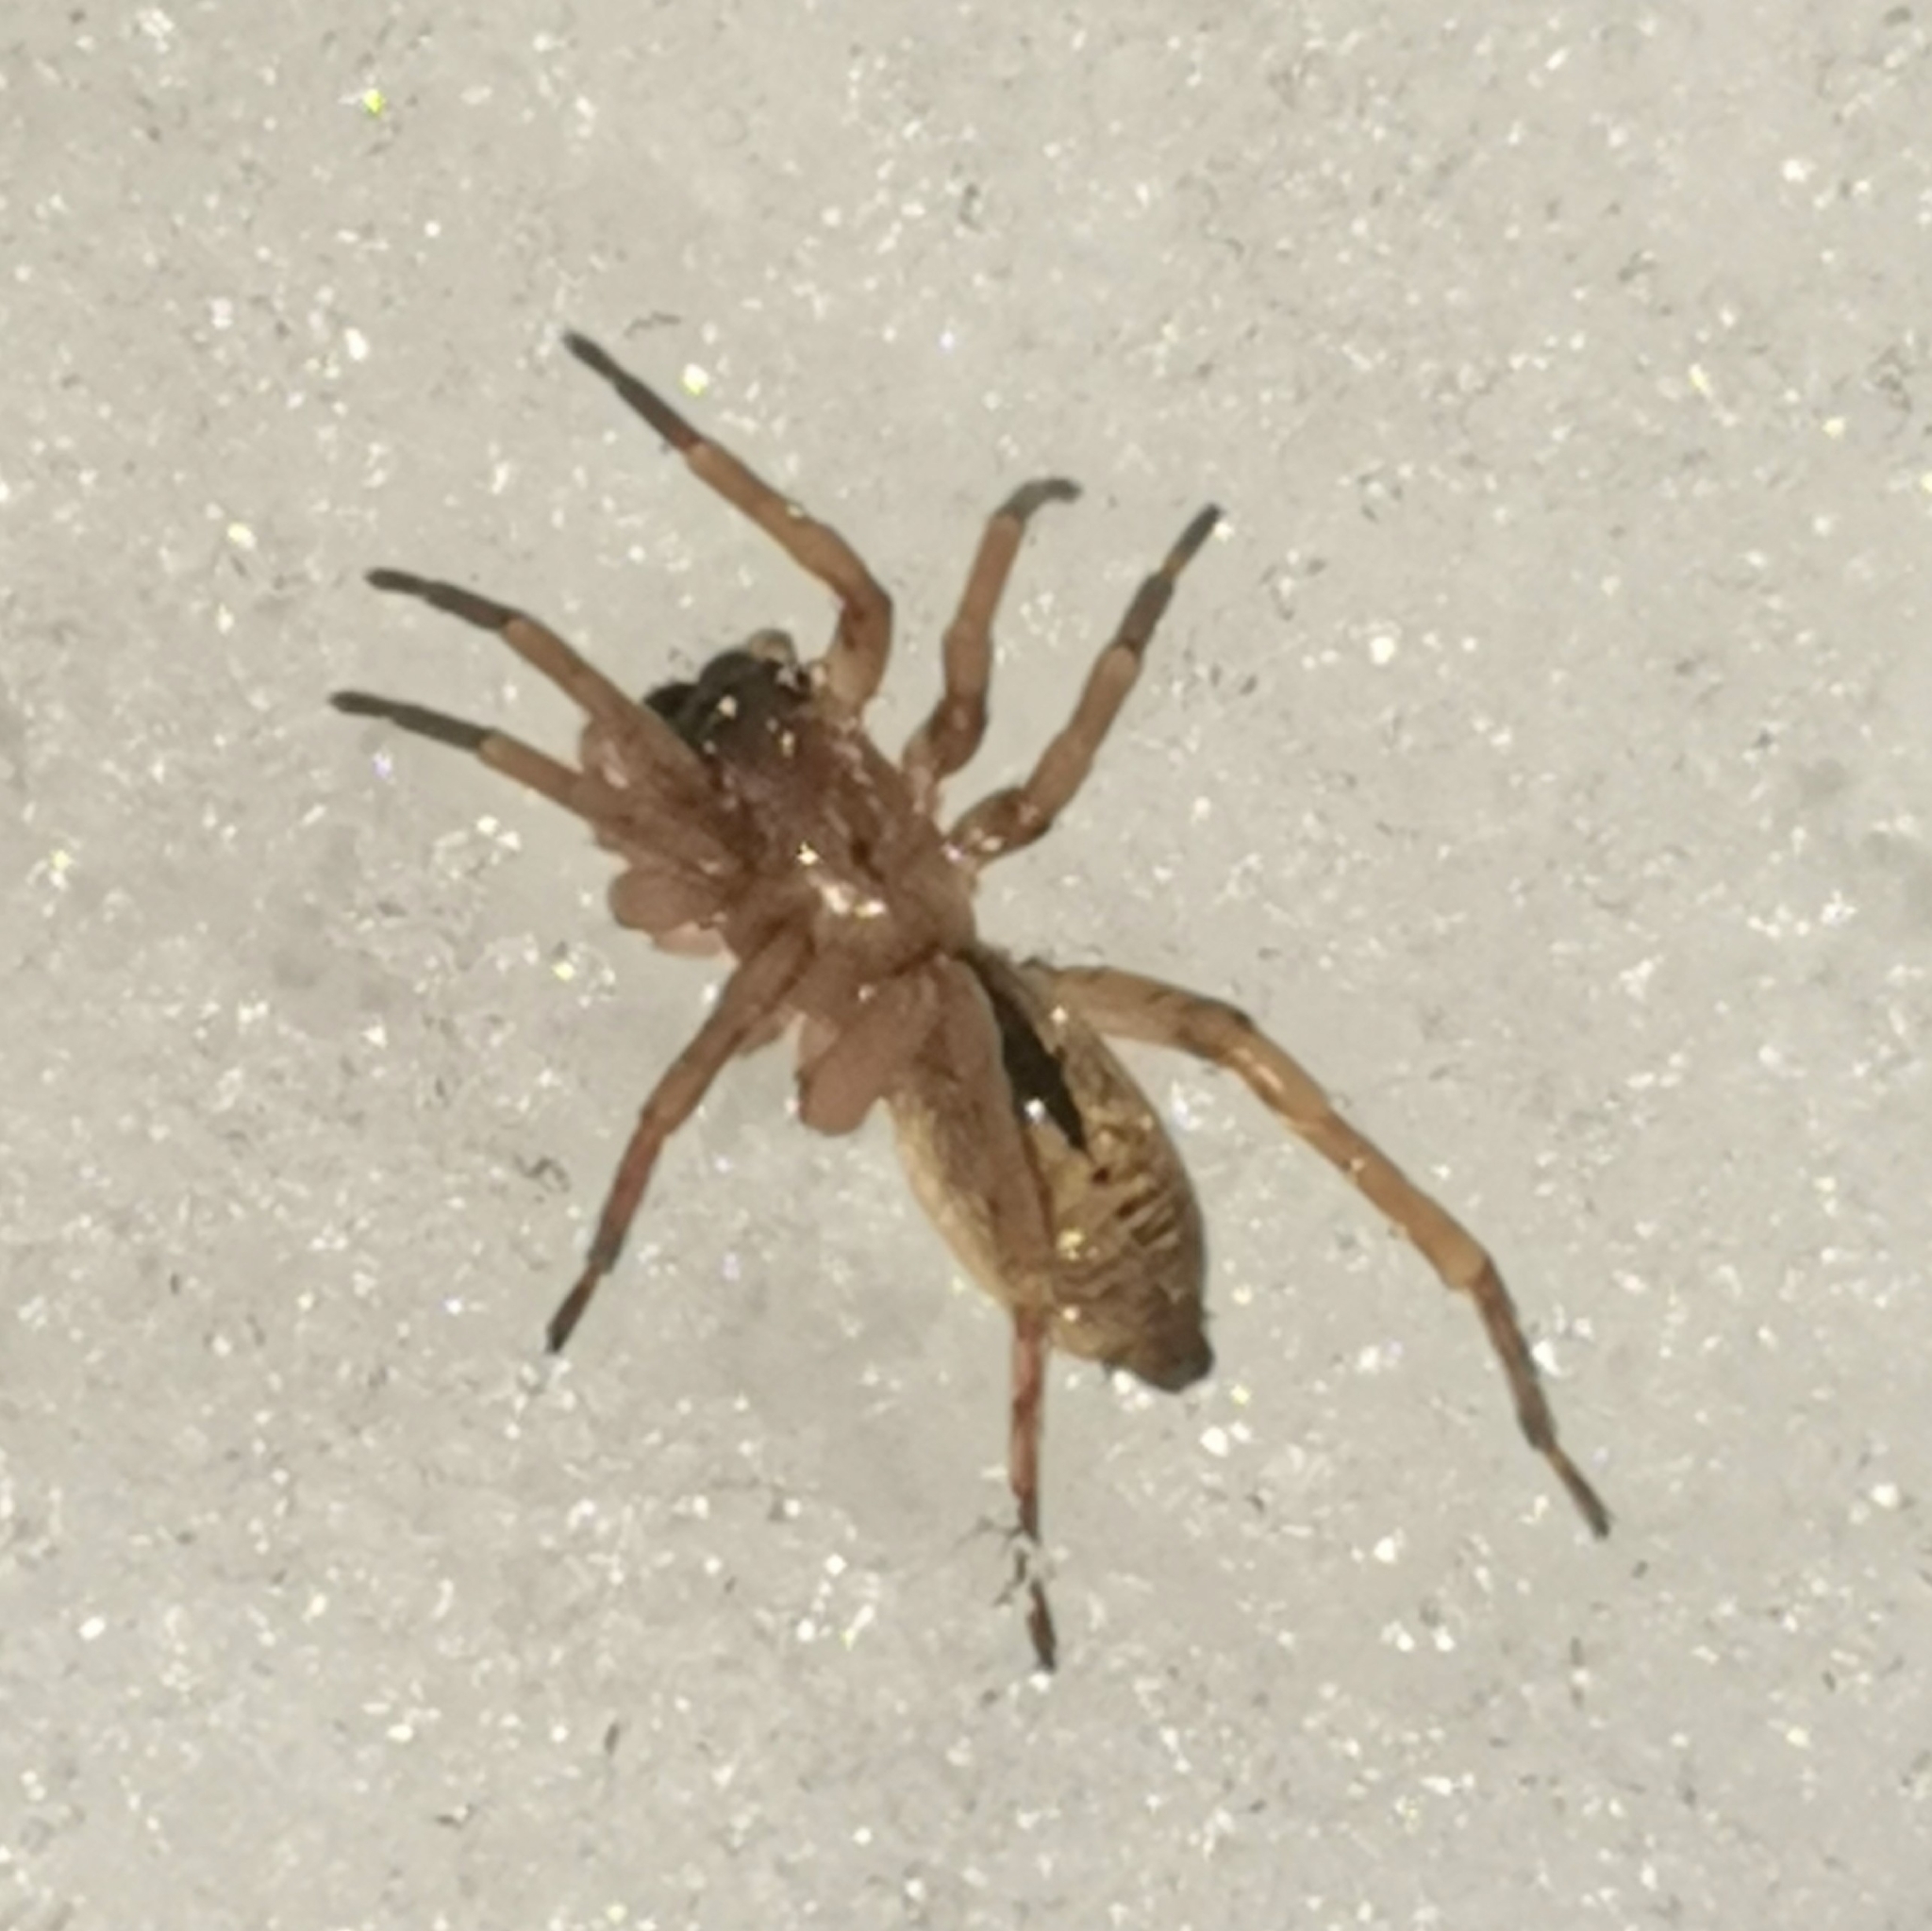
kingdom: Animalia
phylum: Arthropoda
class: Arachnida
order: Araneae
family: Clubionidae
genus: Clubiona
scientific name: Clubiona subsultans
